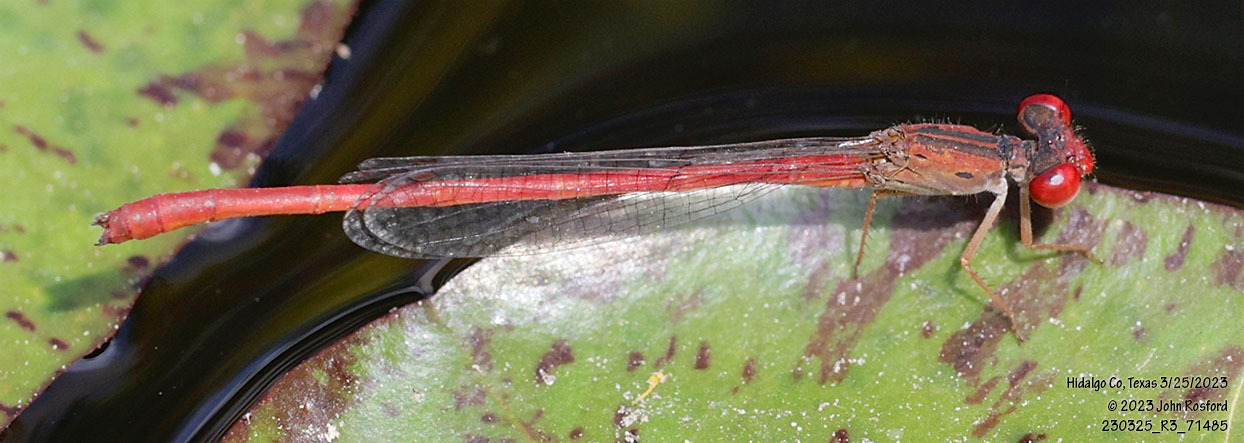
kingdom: Animalia
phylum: Arthropoda
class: Insecta
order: Odonata
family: Coenagrionidae
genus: Telebasis
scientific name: Telebasis salva
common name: Desert firetail
